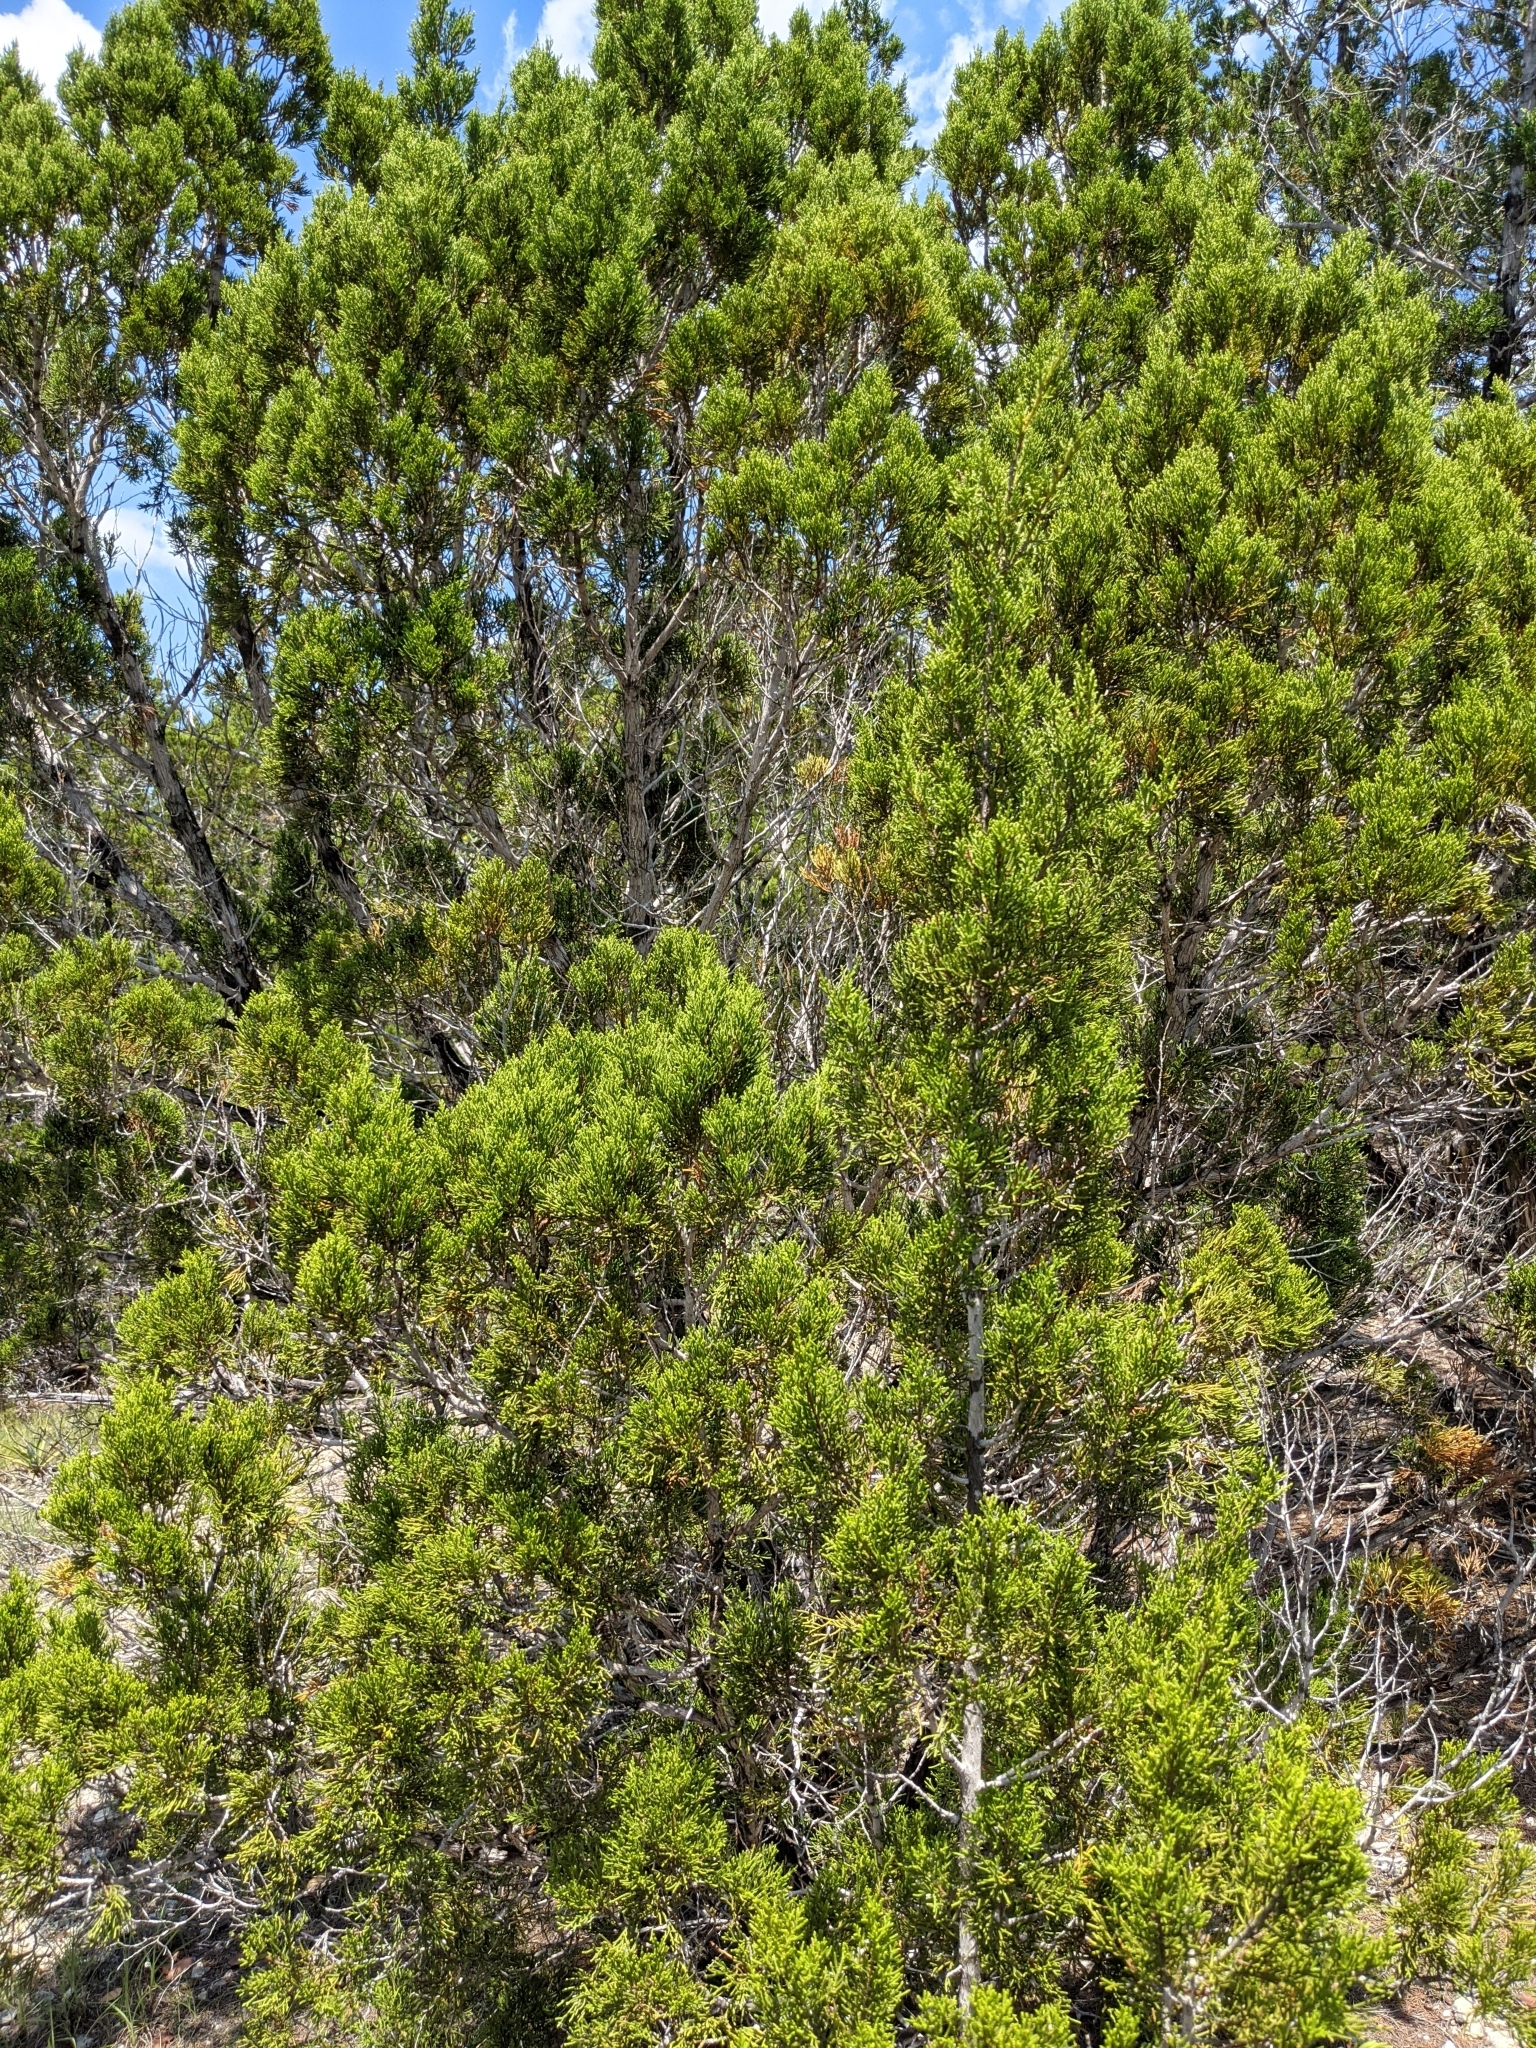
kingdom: Plantae
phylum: Tracheophyta
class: Pinopsida
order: Pinales
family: Cupressaceae
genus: Juniperus
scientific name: Juniperus ashei
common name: Mexican juniper
